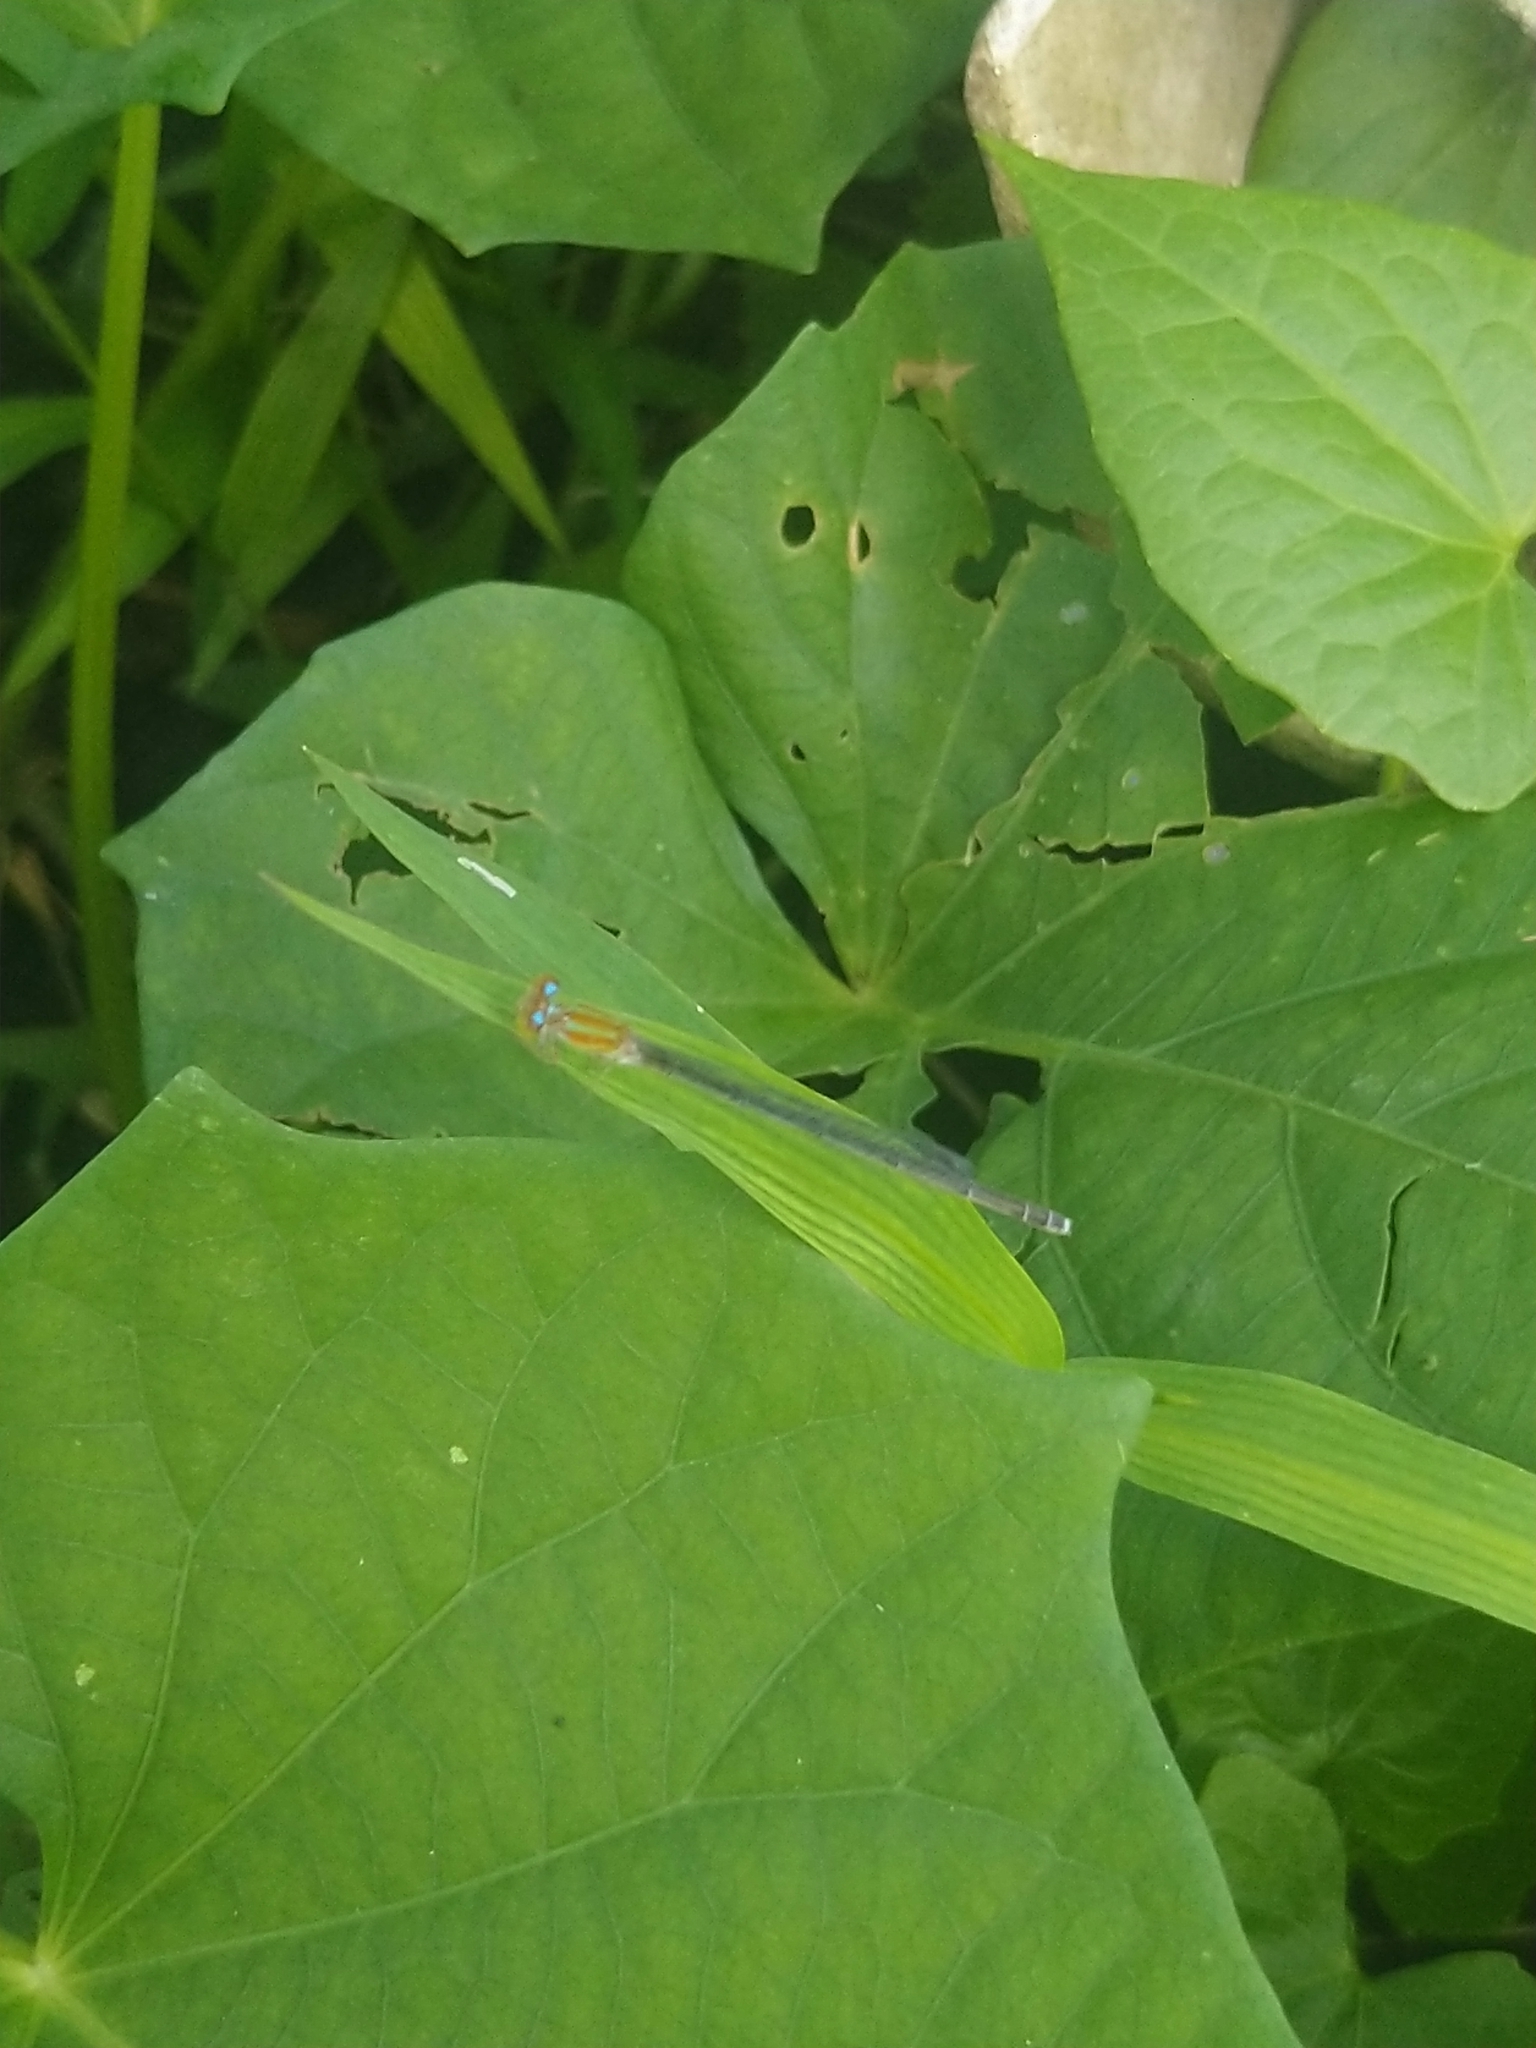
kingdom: Animalia
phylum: Arthropoda
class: Insecta
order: Odonata
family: Coenagrionidae
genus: Pseudagrion
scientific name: Pseudagrion microcephalum
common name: Blue riverdamsel
